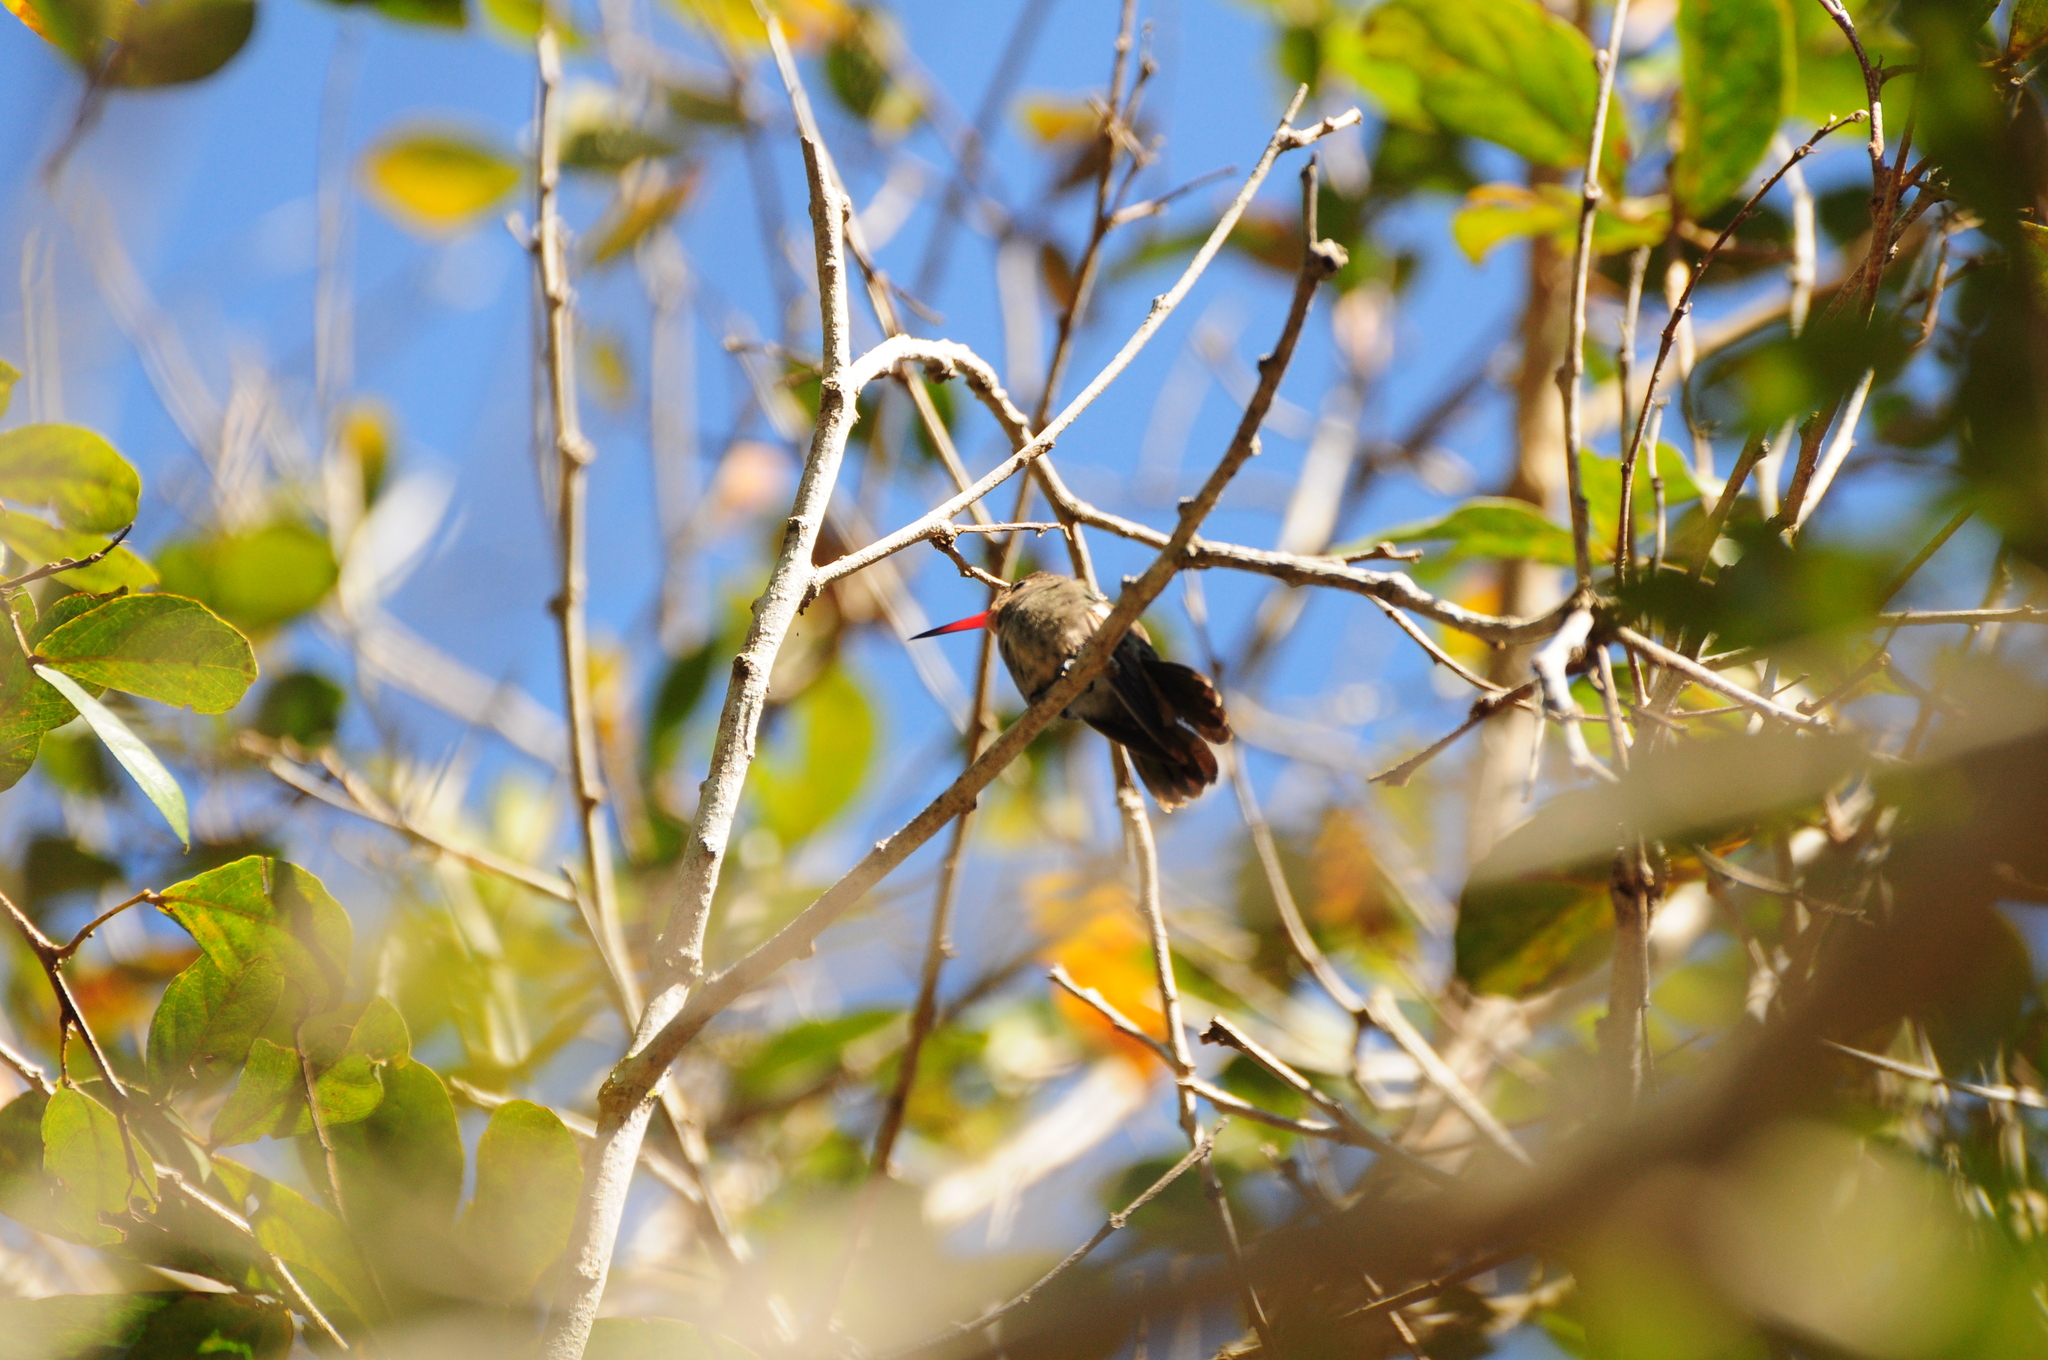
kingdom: Animalia
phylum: Chordata
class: Aves
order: Apodiformes
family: Trochilidae
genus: Hylocharis
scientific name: Hylocharis chrysura
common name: Gilded sapphire
